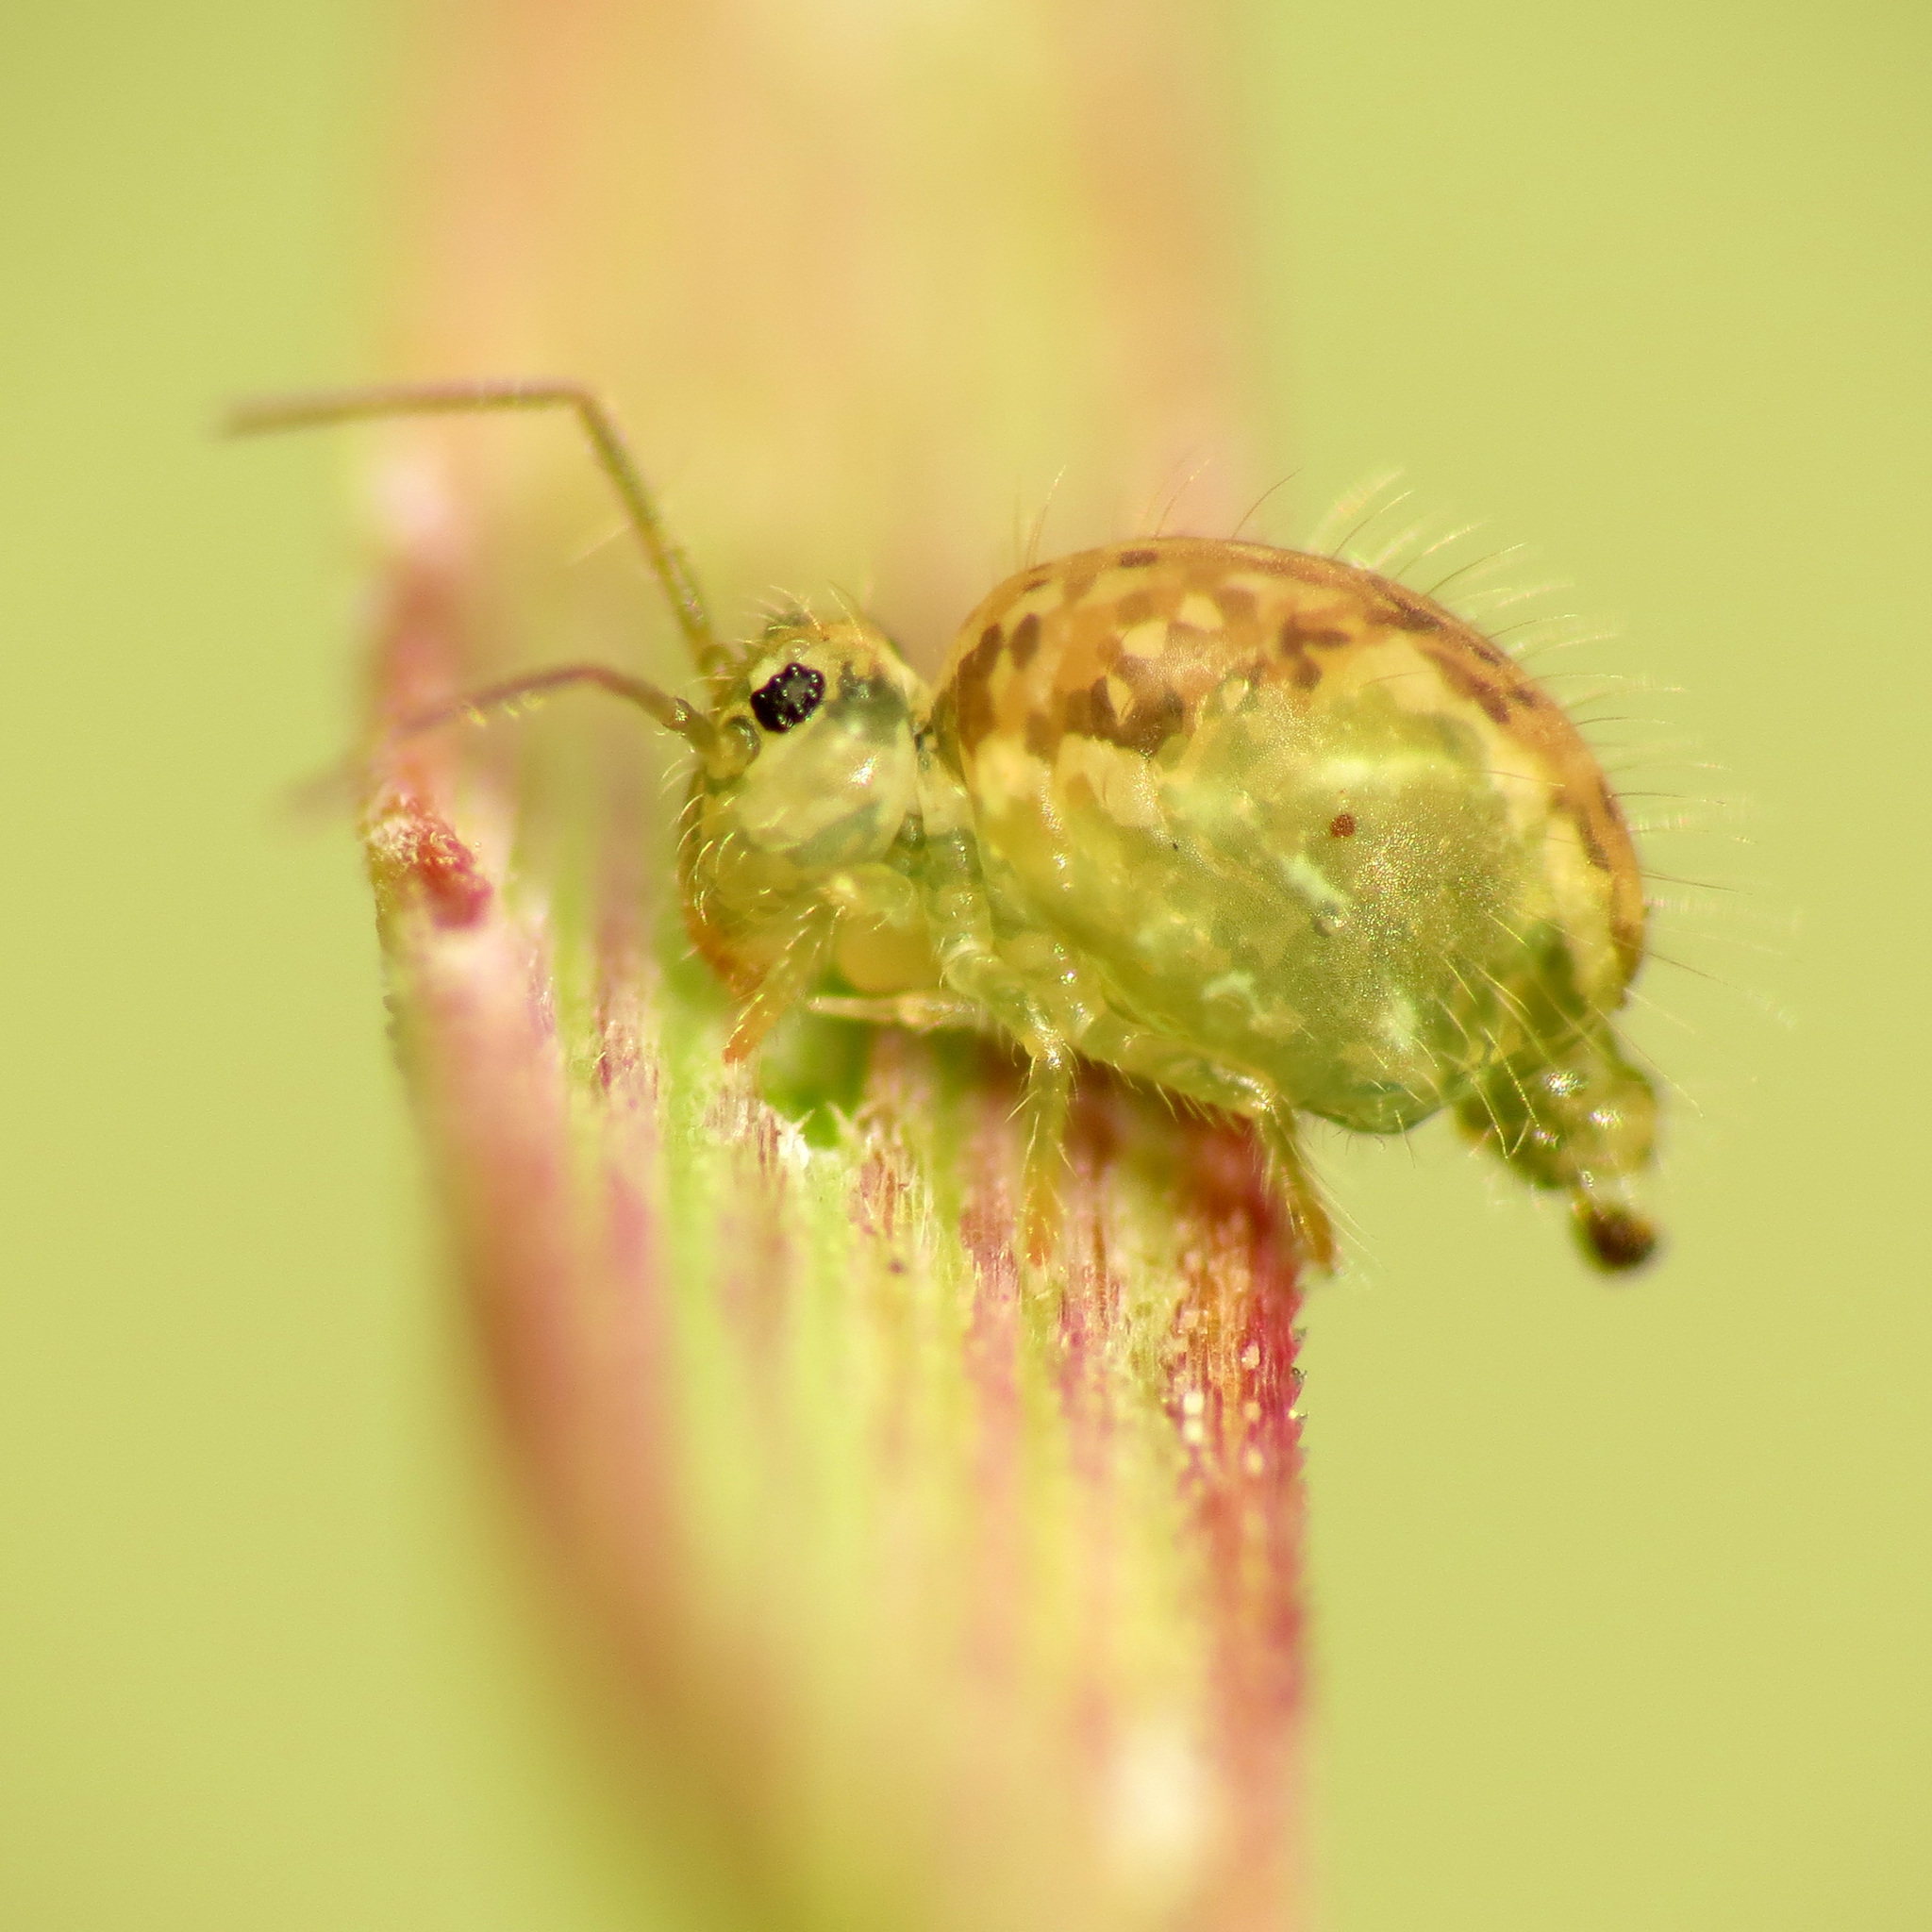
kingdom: Animalia
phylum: Arthropoda
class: Collembola
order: Symphypleona
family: Sminthuridae
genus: Sminthurus
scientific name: Sminthurus maculatus
